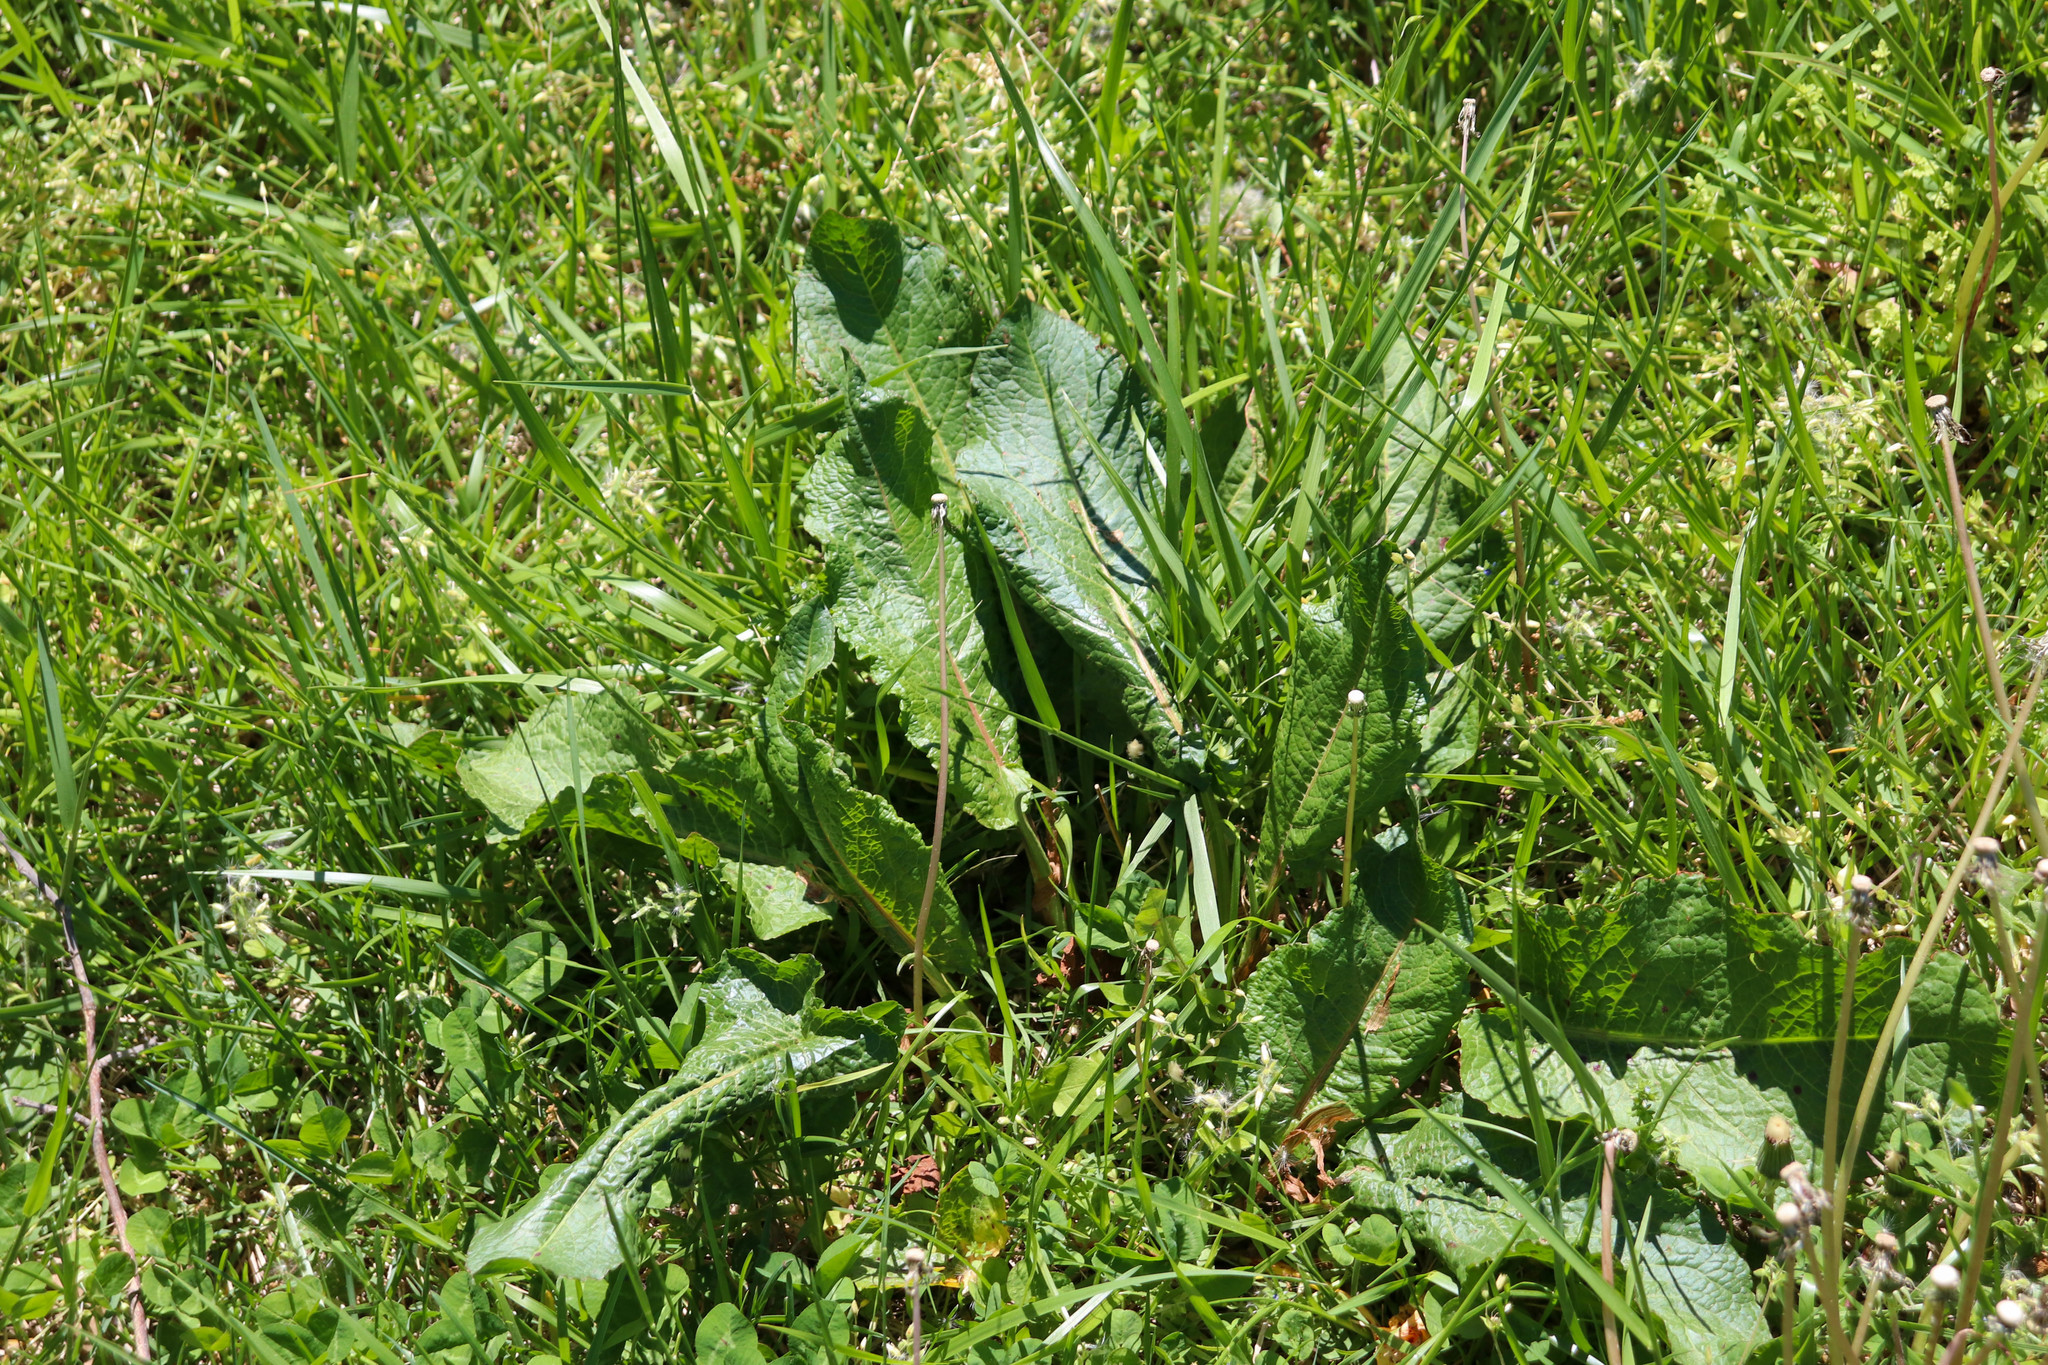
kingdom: Plantae
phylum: Tracheophyta
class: Magnoliopsida
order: Caryophyllales
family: Polygonaceae
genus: Rumex
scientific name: Rumex obtusifolius
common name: Bitter dock
